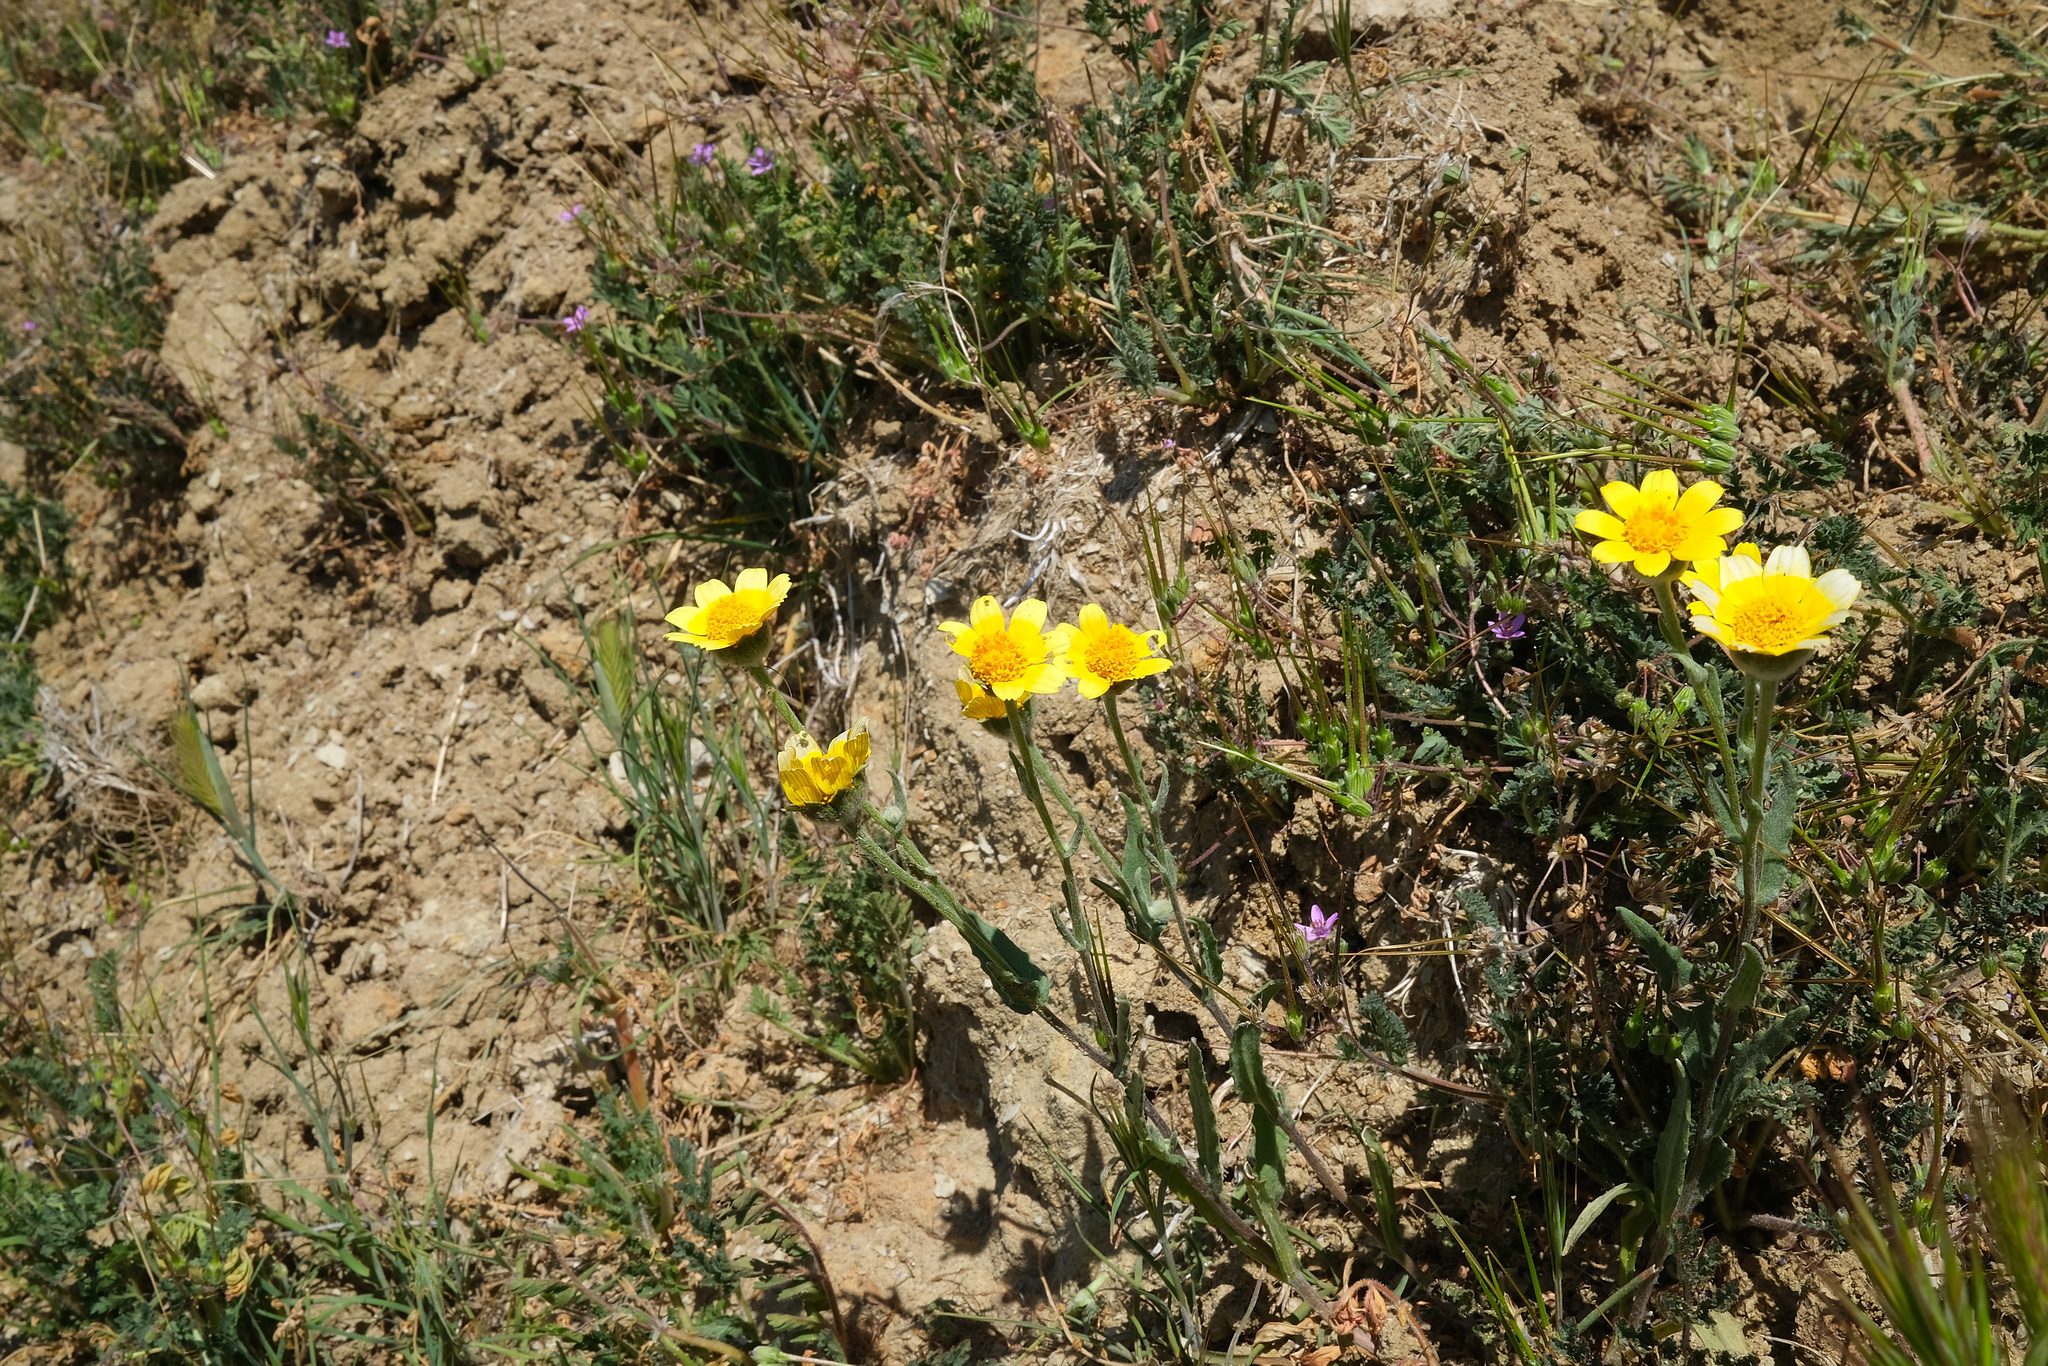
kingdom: Plantae
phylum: Tracheophyta
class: Magnoliopsida
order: Asterales
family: Asteraceae
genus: Monolopia
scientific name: Monolopia lanceolata
